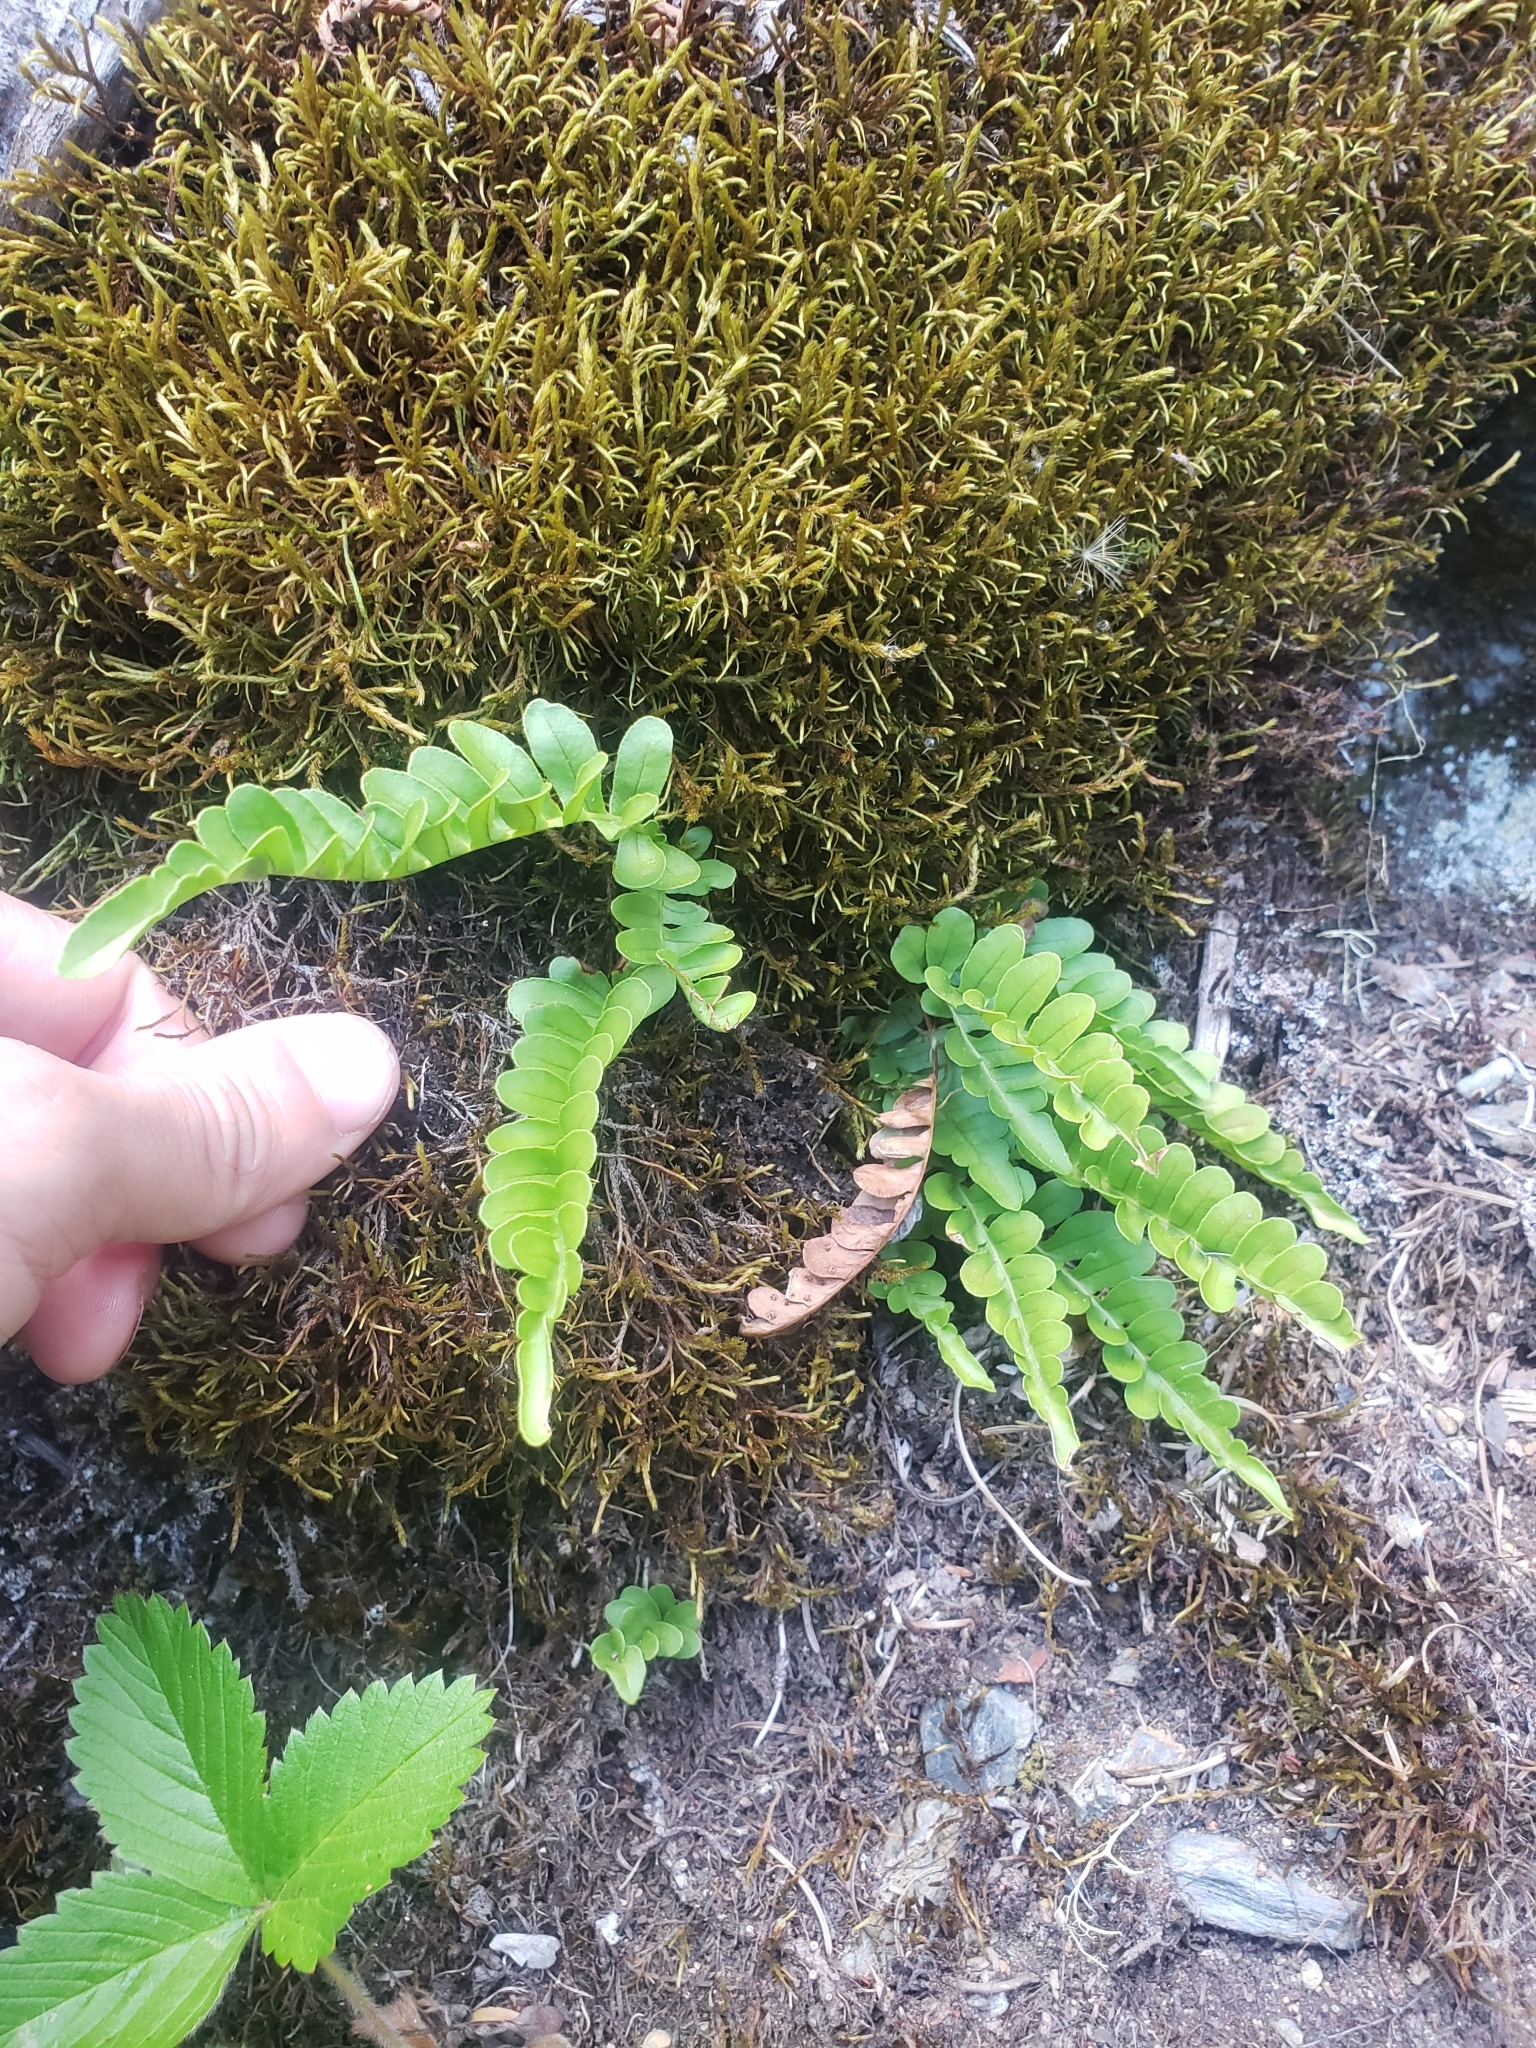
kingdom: Plantae
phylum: Tracheophyta
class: Polypodiopsida
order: Polypodiales
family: Polypodiaceae
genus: Polypodium
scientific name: Polypodium amorphum
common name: Pacific polypody
